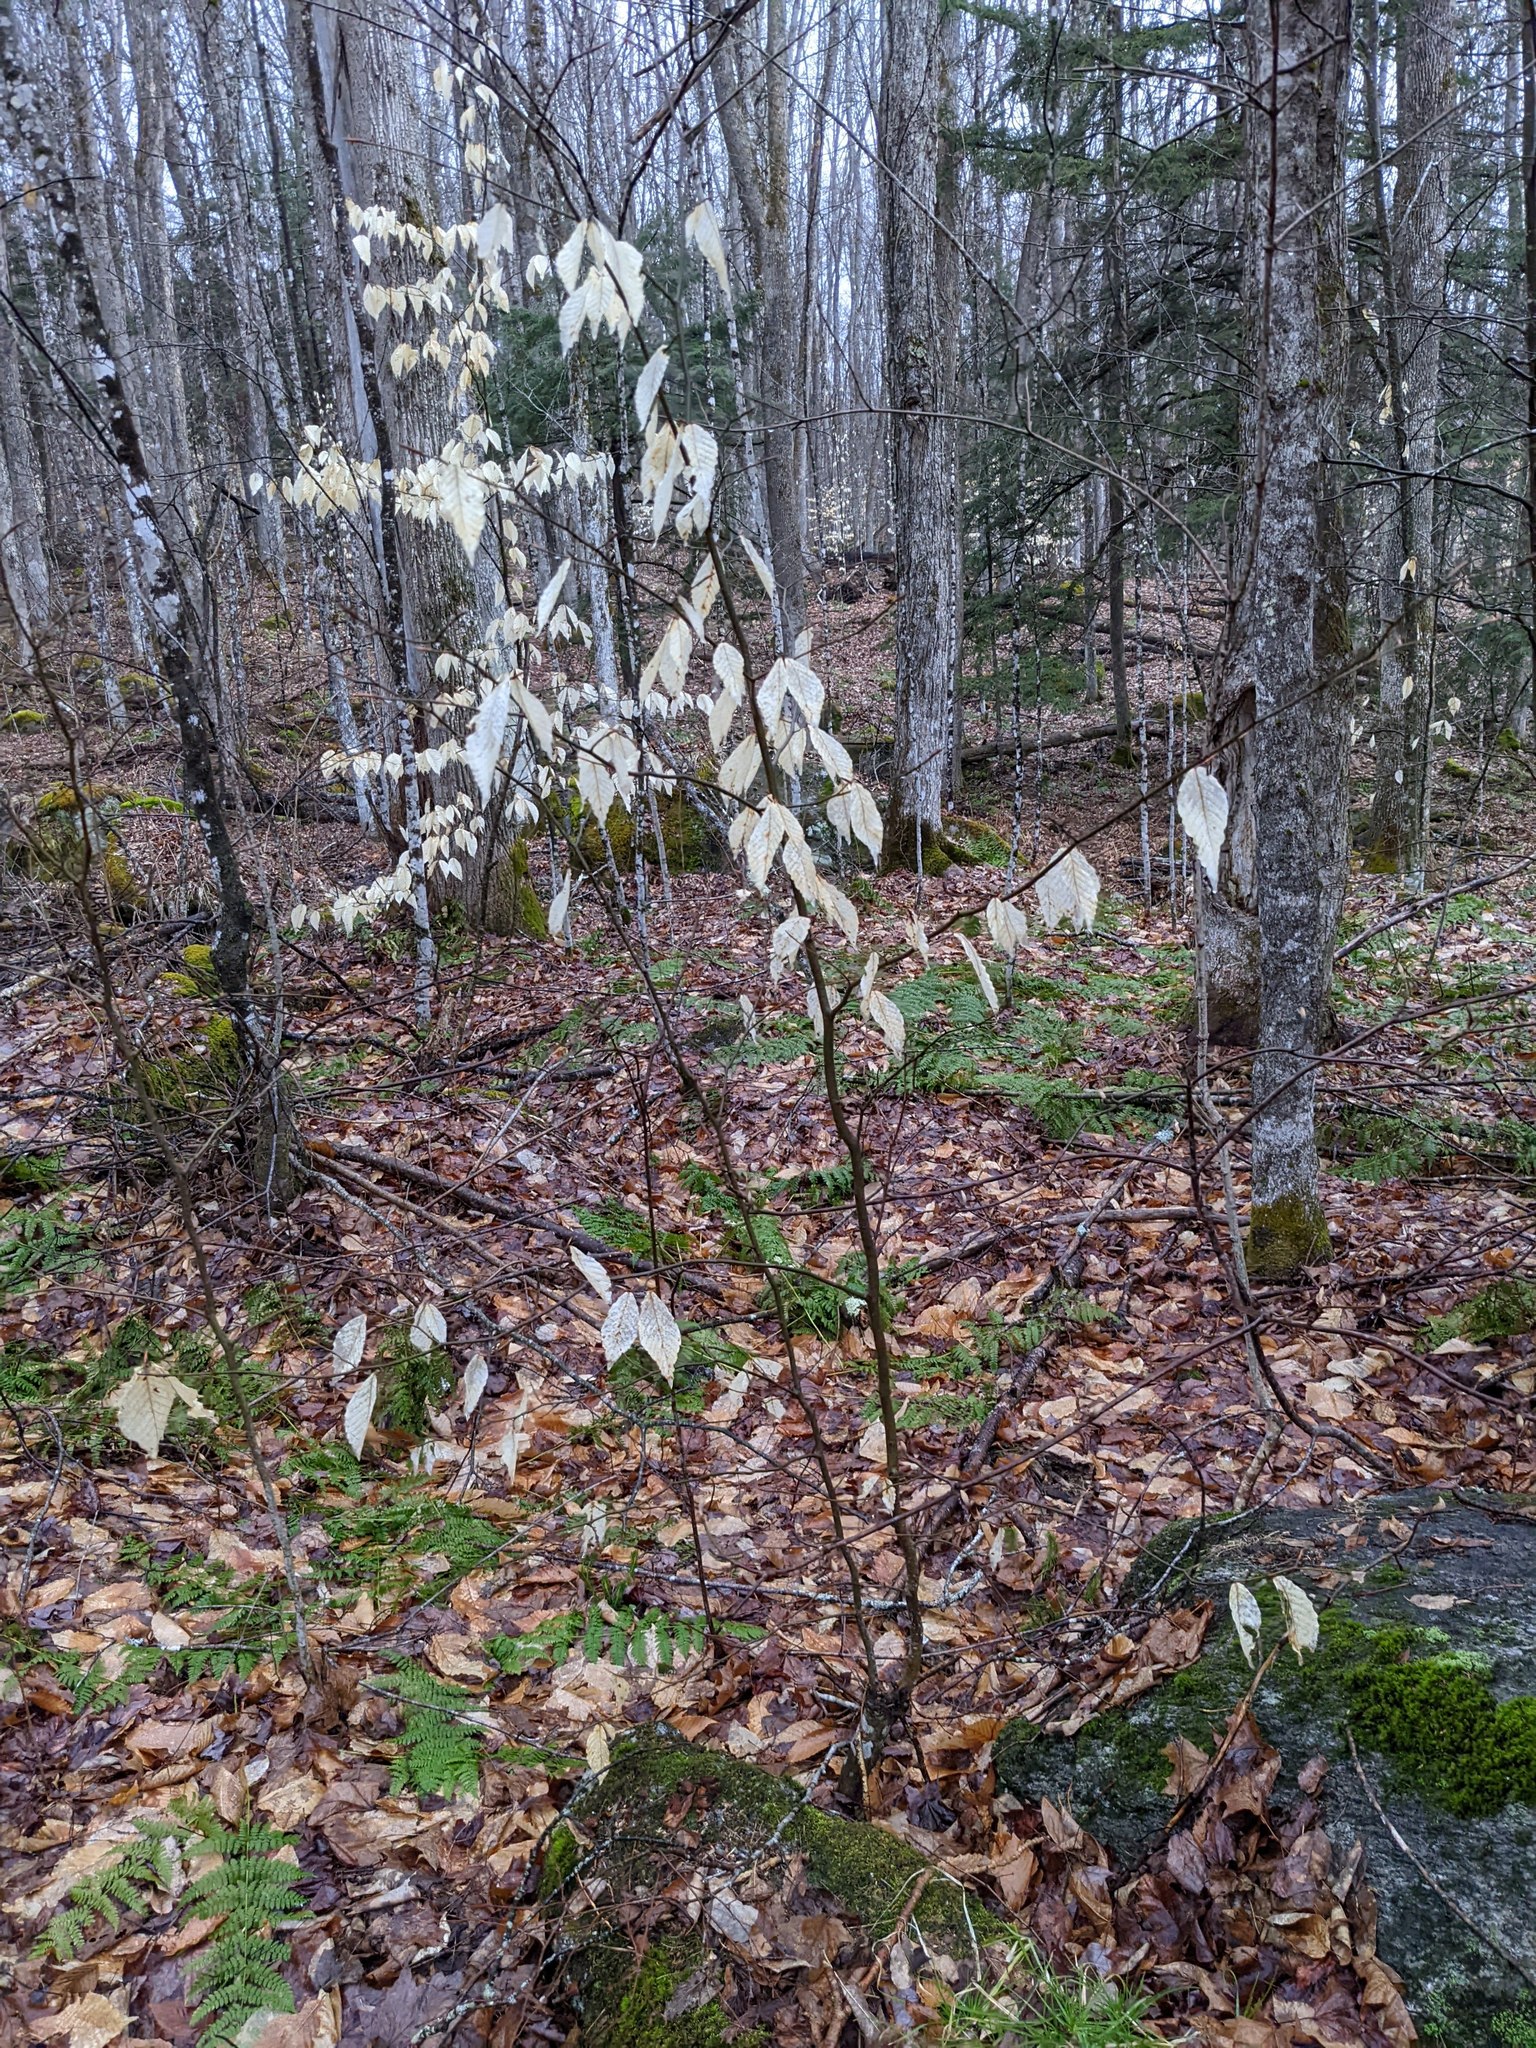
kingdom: Plantae
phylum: Tracheophyta
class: Magnoliopsida
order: Fagales
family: Fagaceae
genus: Fagus
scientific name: Fagus grandifolia
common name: American beech
